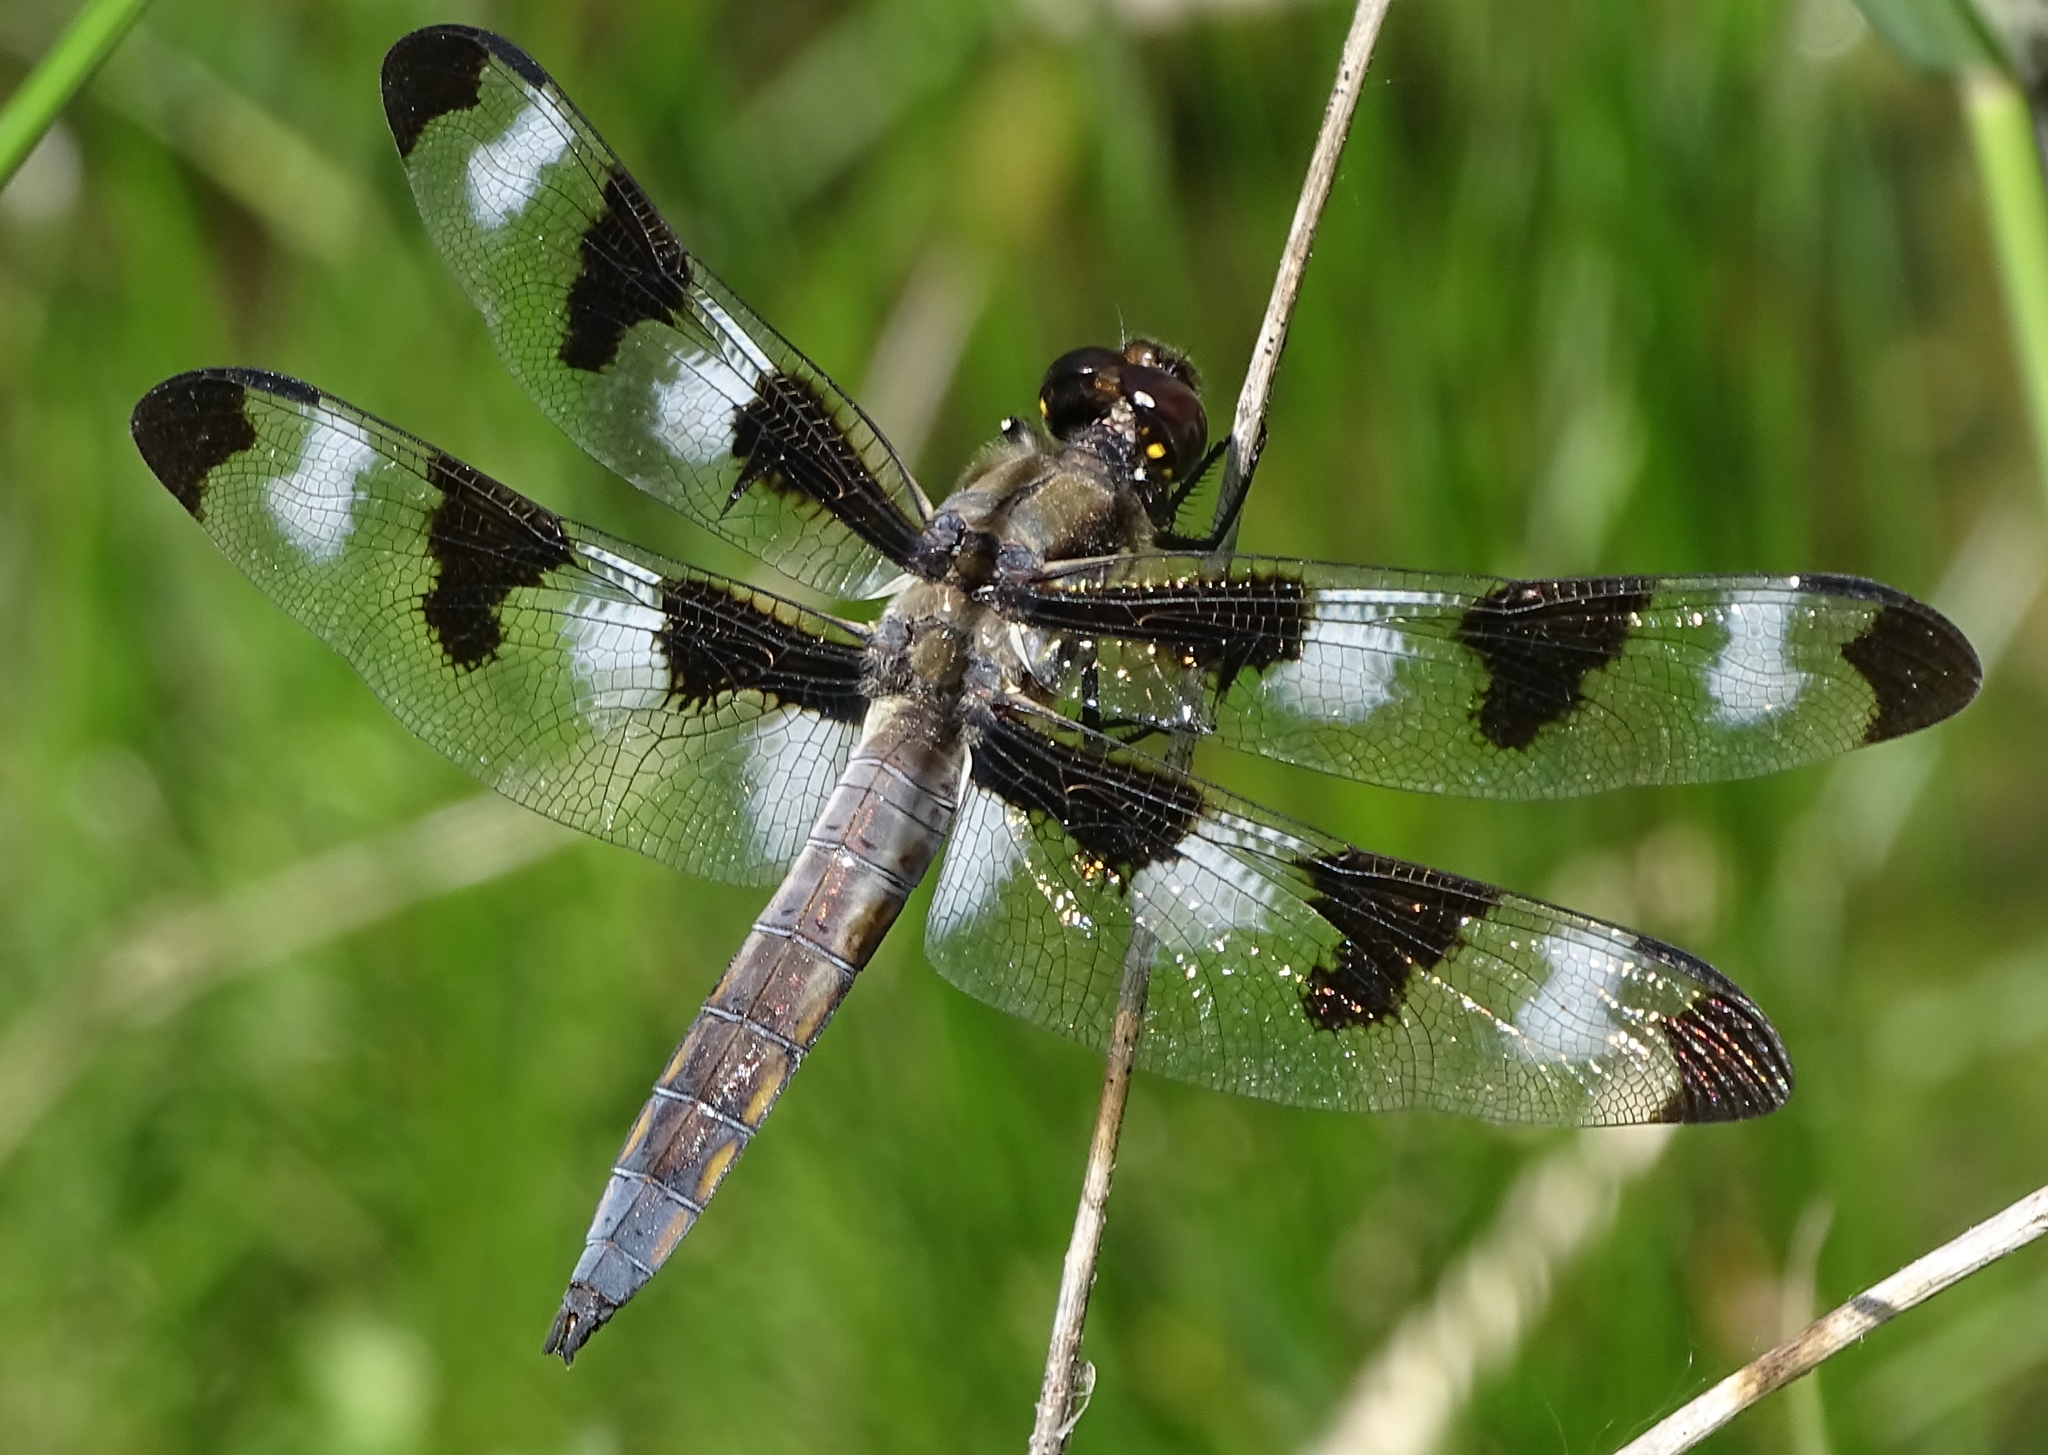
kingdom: Animalia
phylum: Arthropoda
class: Insecta
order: Odonata
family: Libellulidae
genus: Libellula
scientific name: Libellula pulchella
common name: Twelve-spotted skimmer
